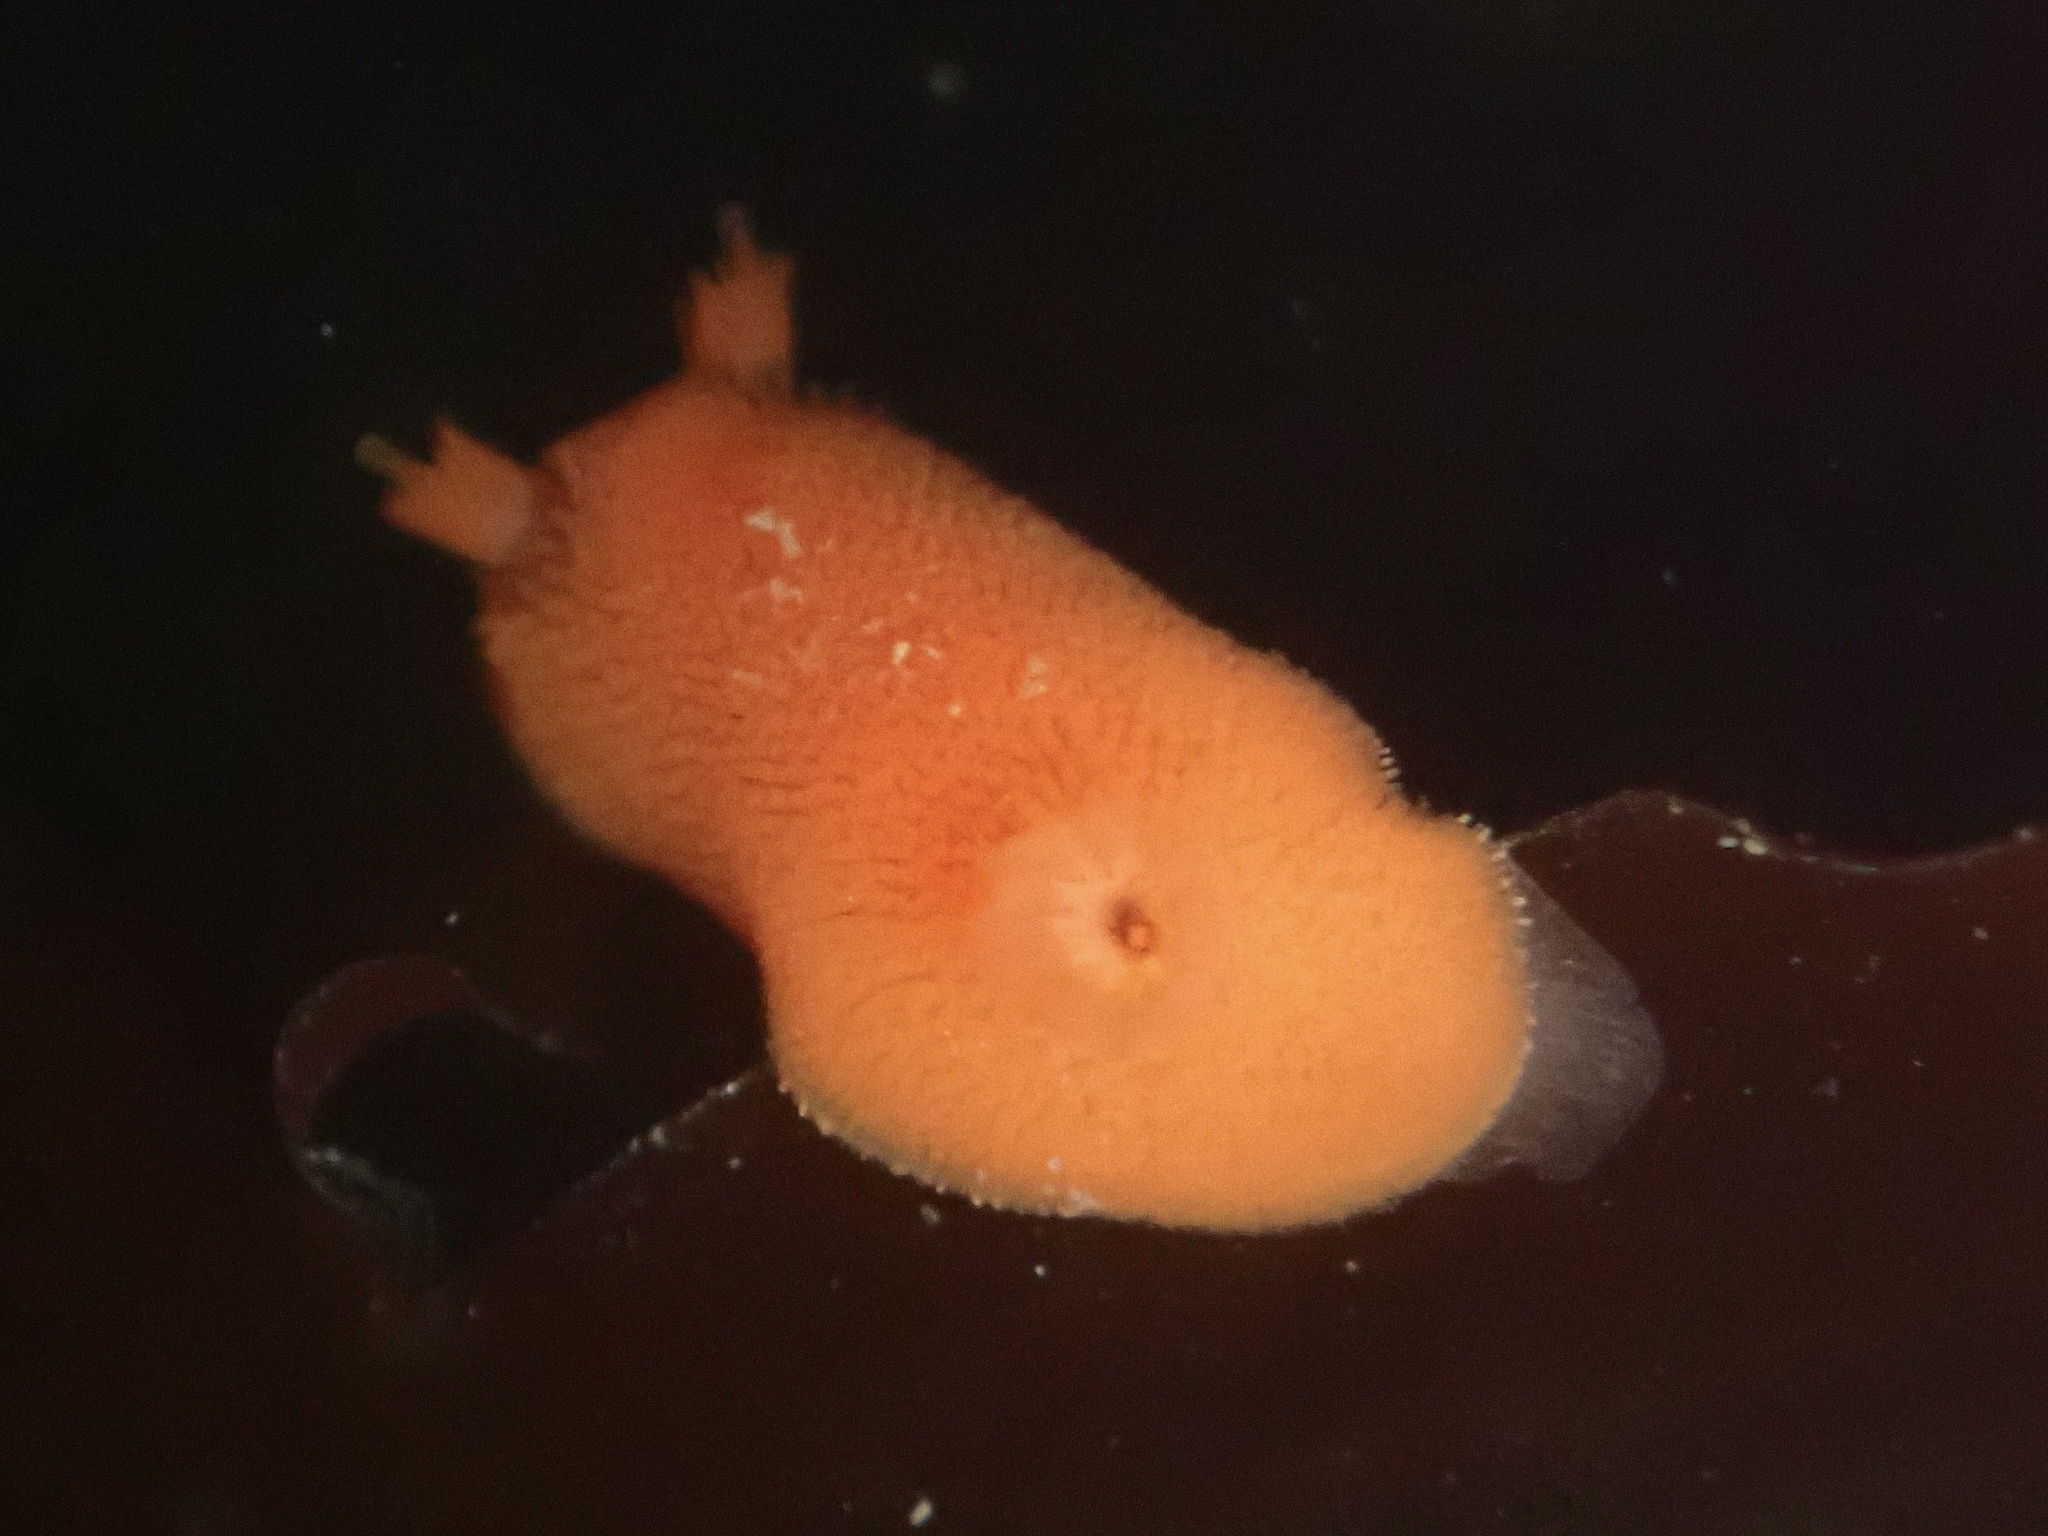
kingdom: Animalia
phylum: Mollusca
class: Gastropoda
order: Nudibranchia
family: Discodorididae
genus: Rostanga
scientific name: Rostanga pulchra
